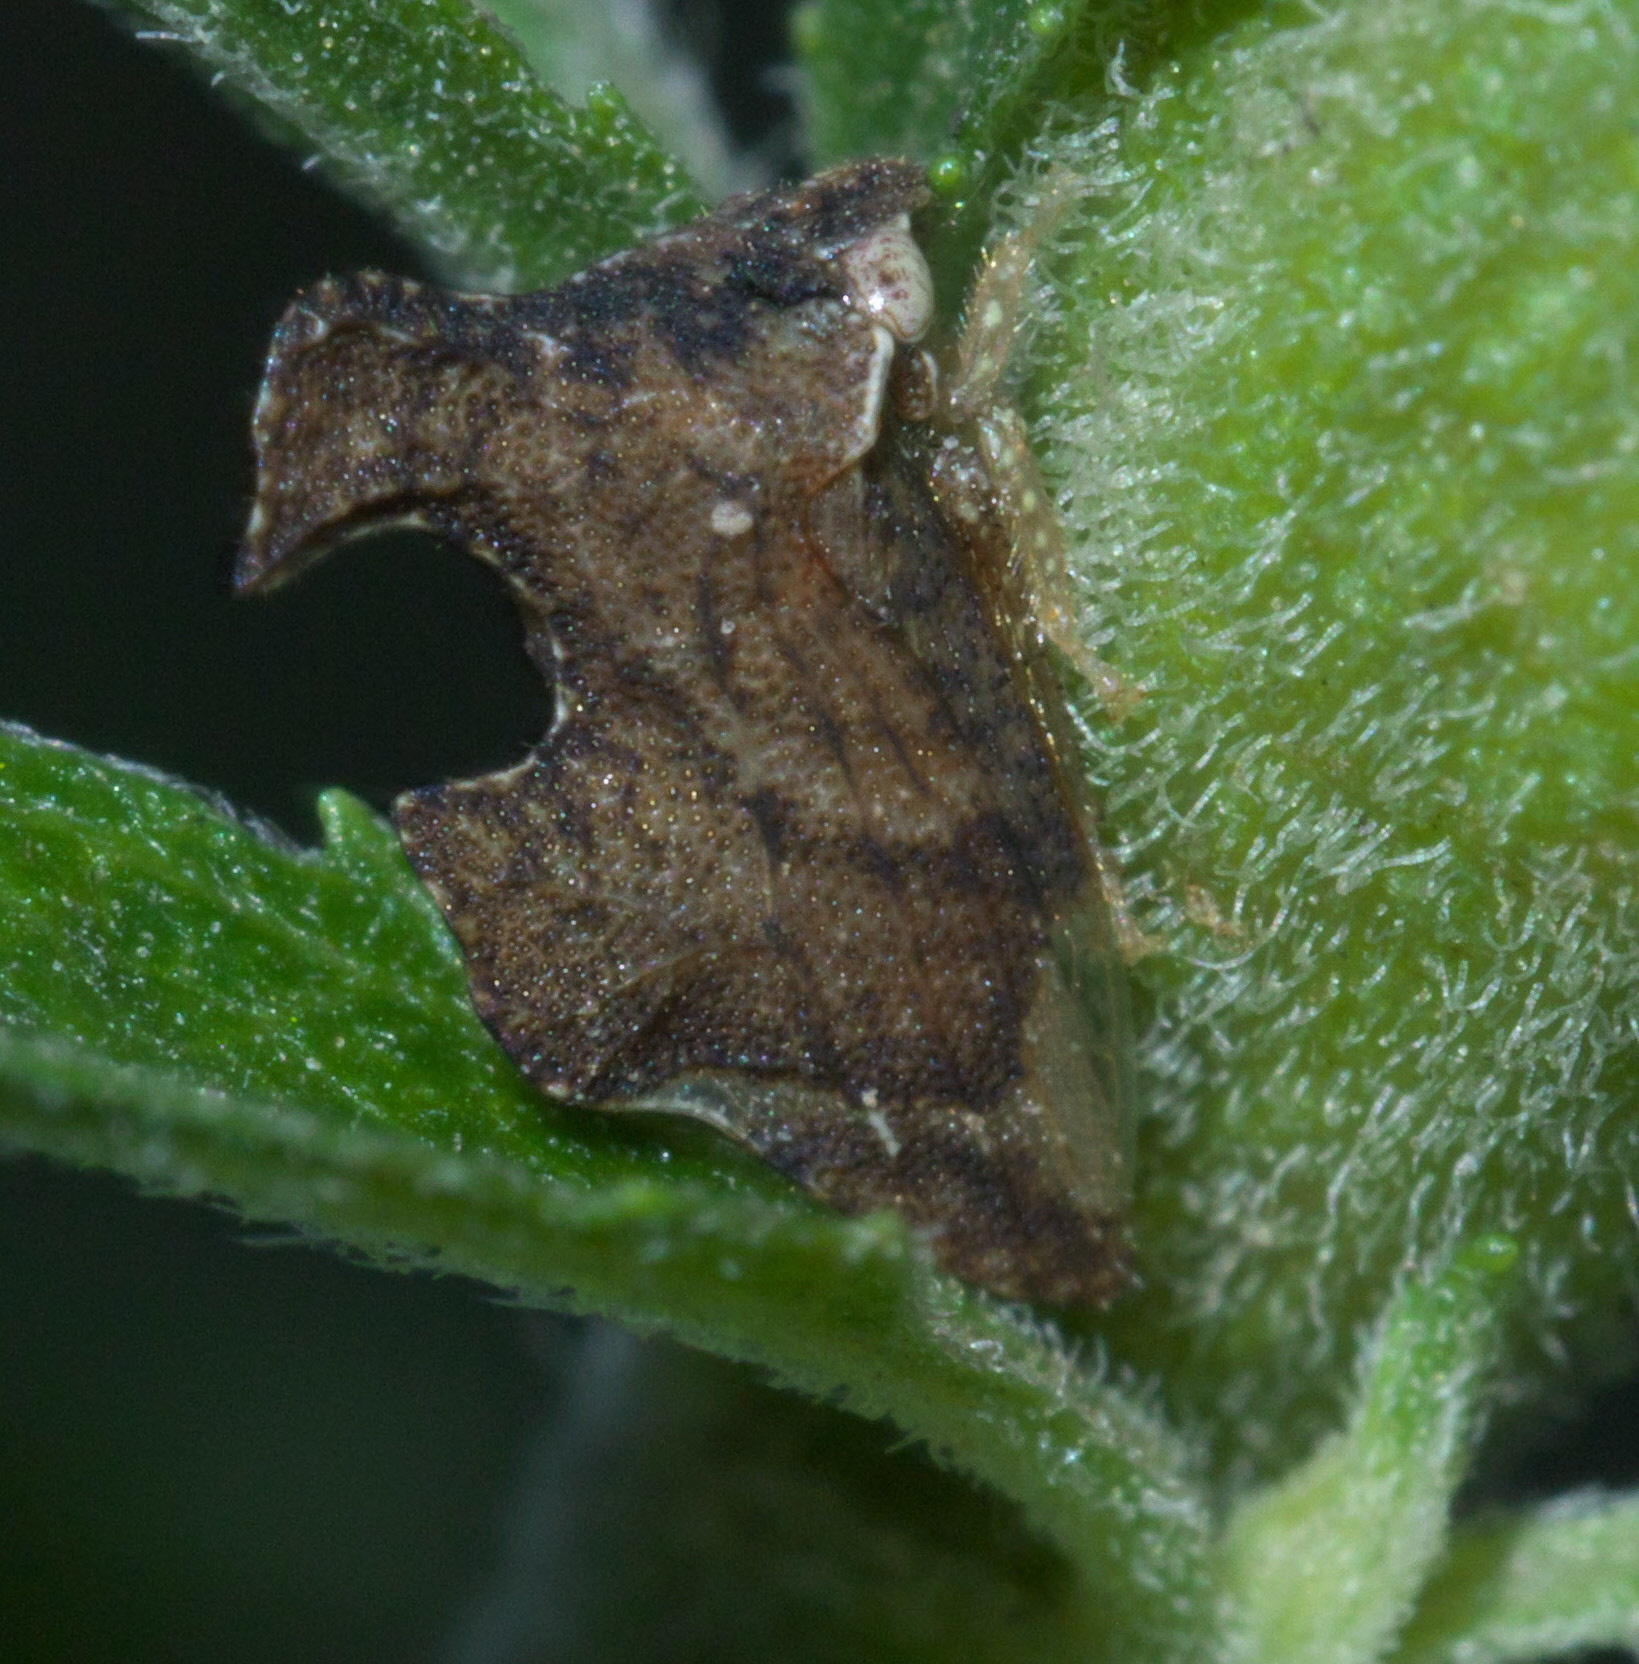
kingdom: Animalia
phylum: Arthropoda
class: Insecta
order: Hemiptera
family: Membracidae
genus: Entylia
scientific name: Entylia carinata
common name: Keeled treehopper
